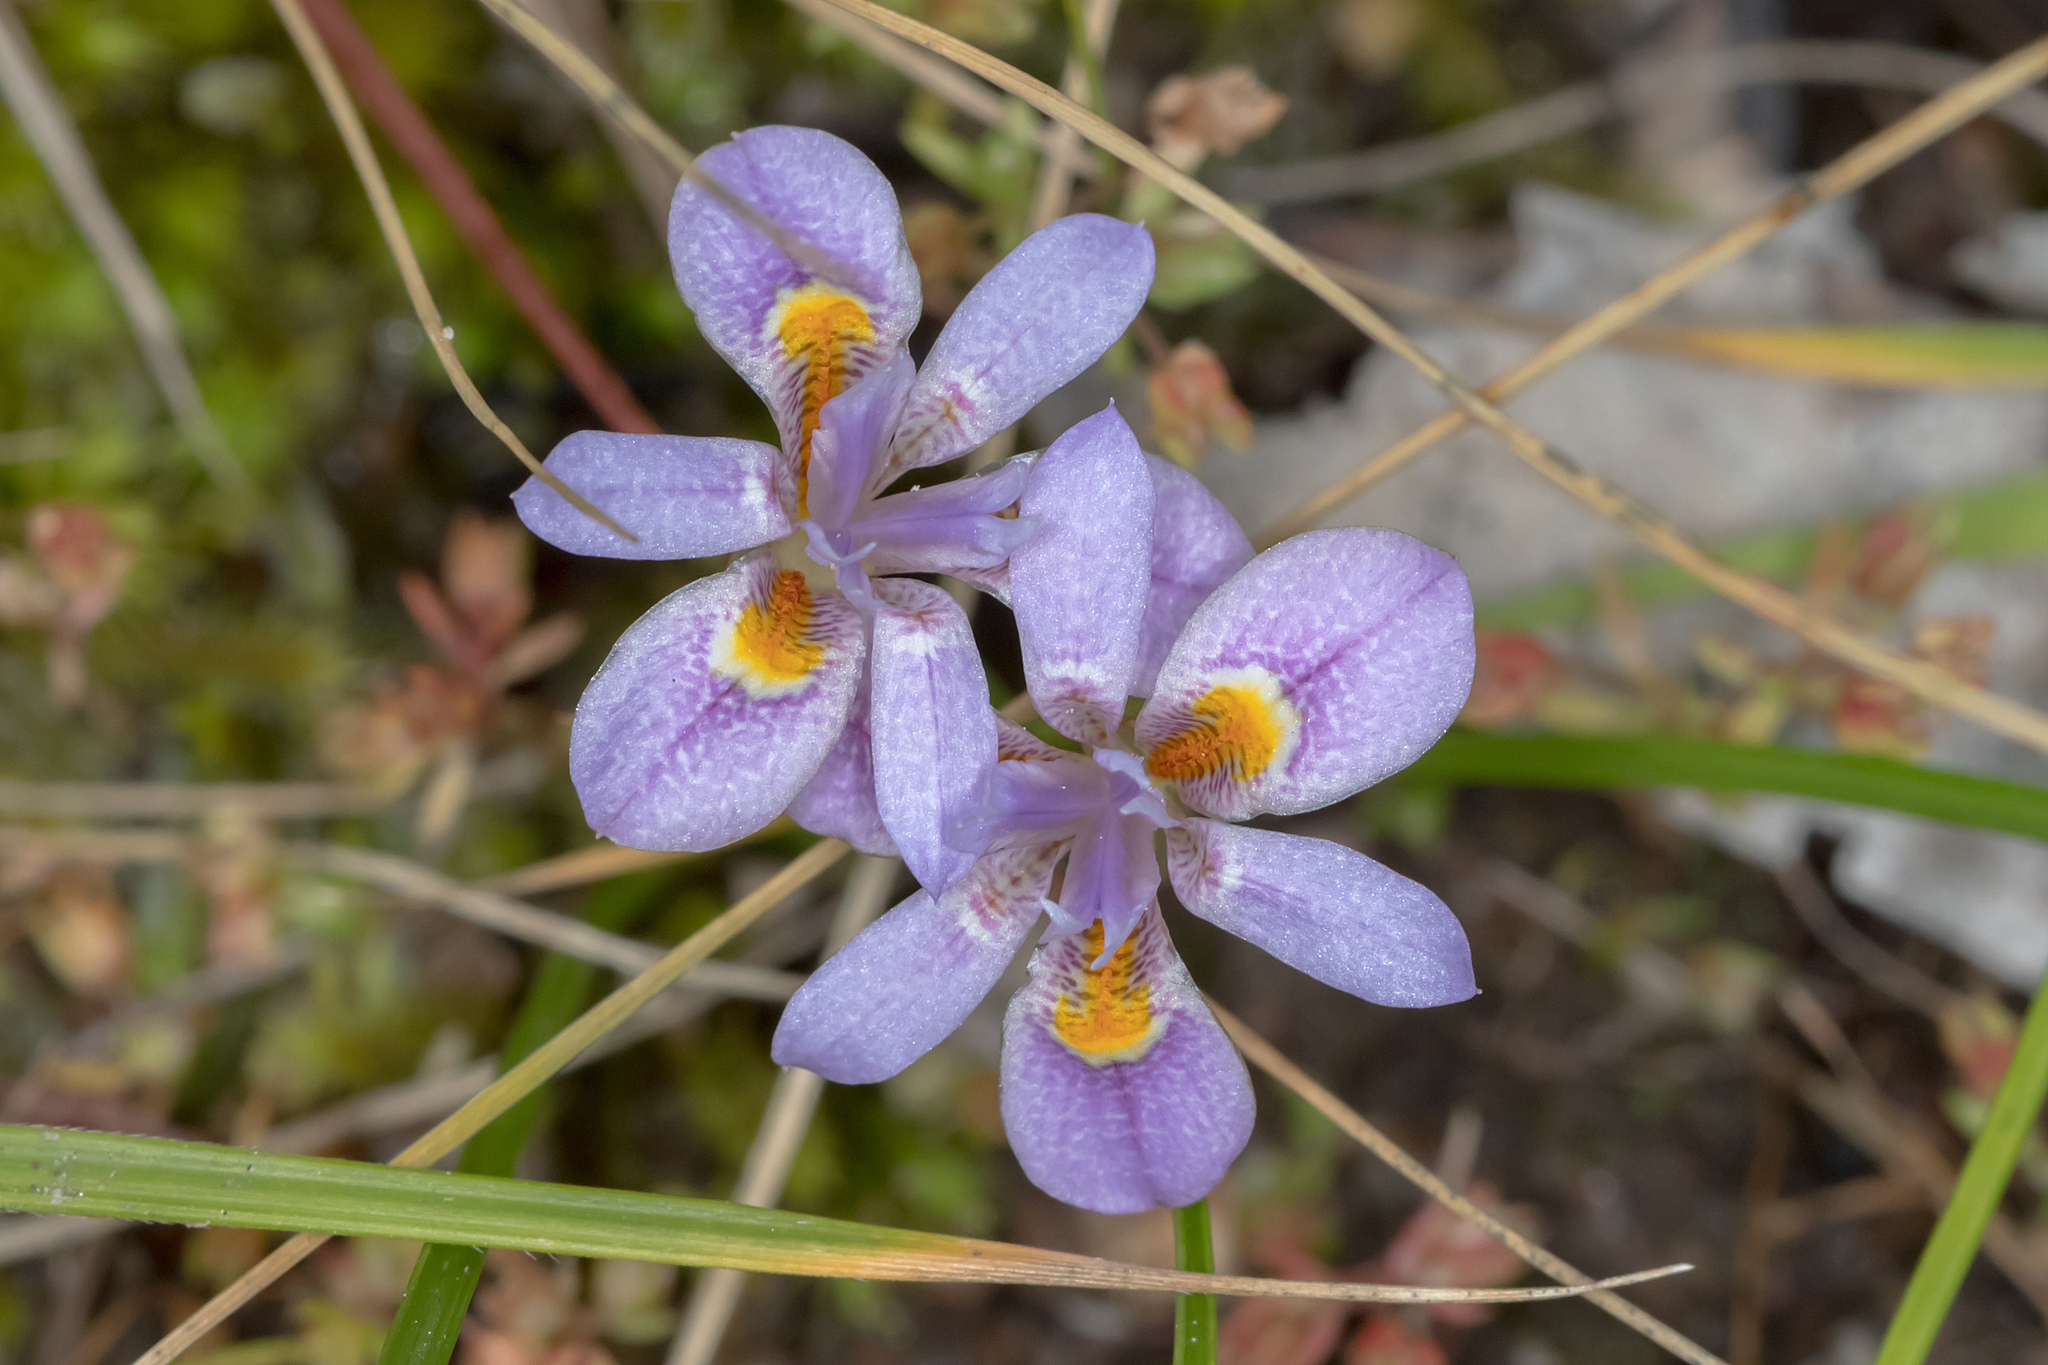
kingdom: Plantae
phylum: Tracheophyta
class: Liliopsida
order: Asparagales
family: Iridaceae
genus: Moraea
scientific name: Moraea setifolia
